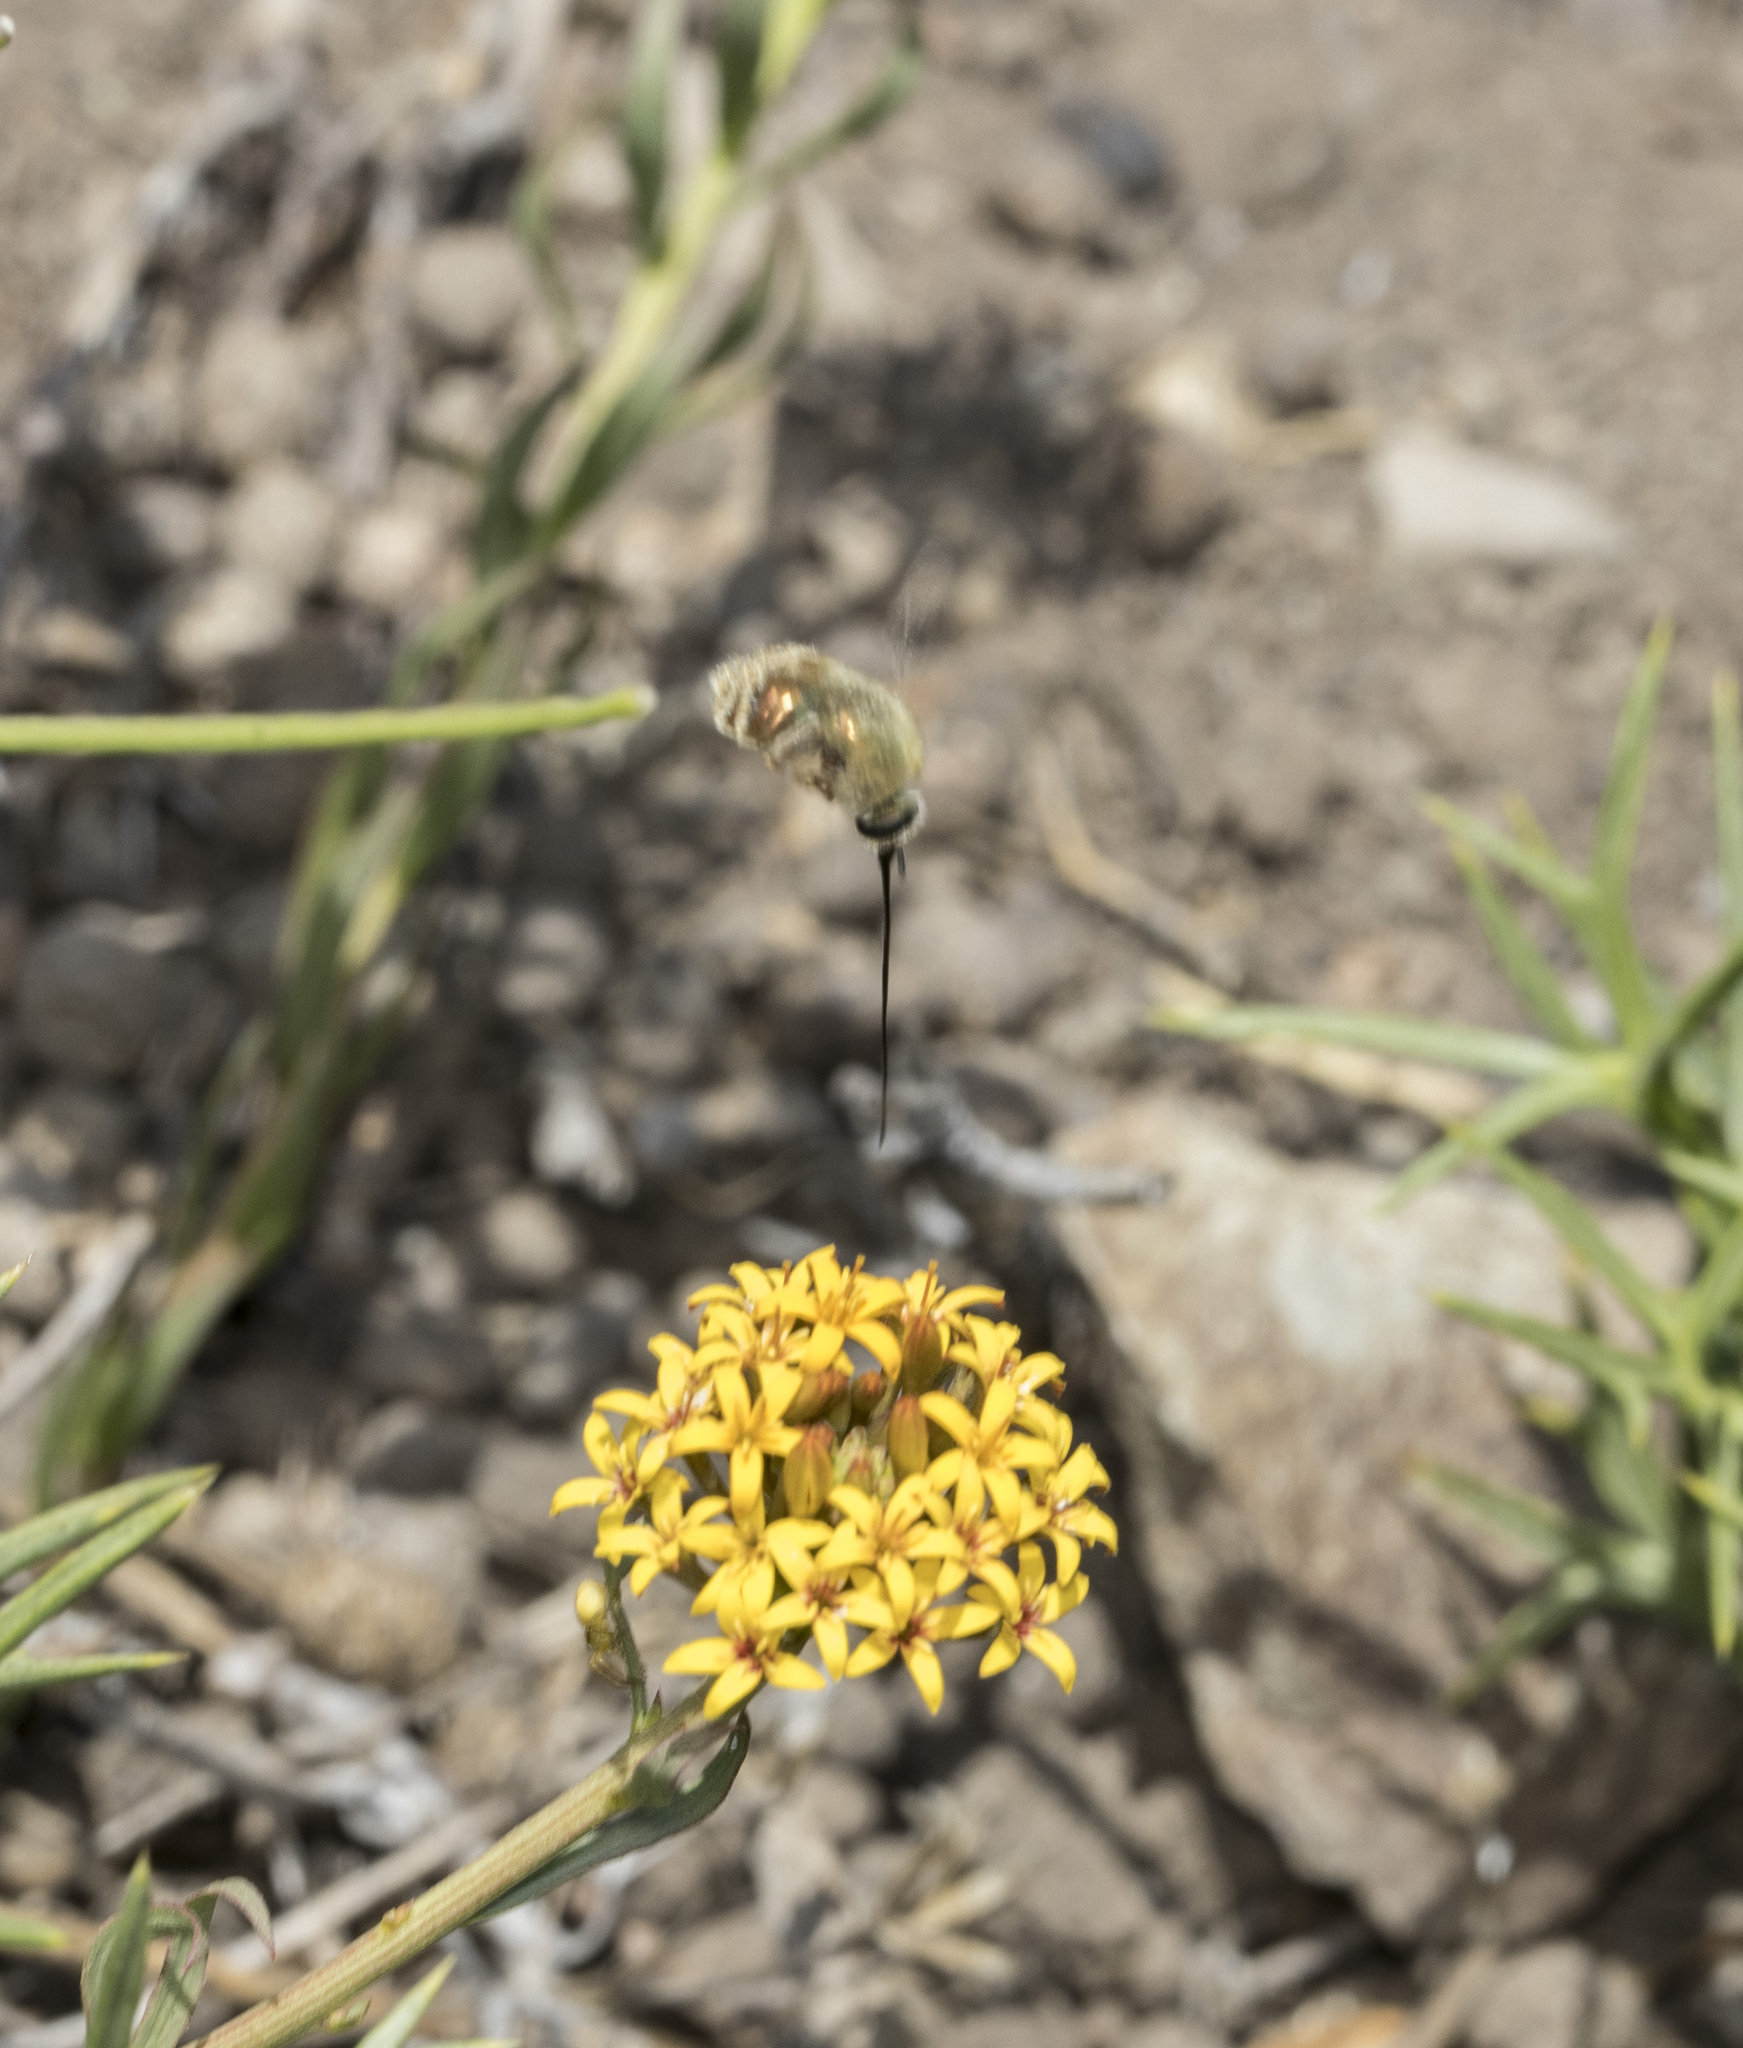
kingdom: Animalia
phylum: Arthropoda
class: Insecta
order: Diptera
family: Acroceridae
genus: Lasia
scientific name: Lasia aenea
